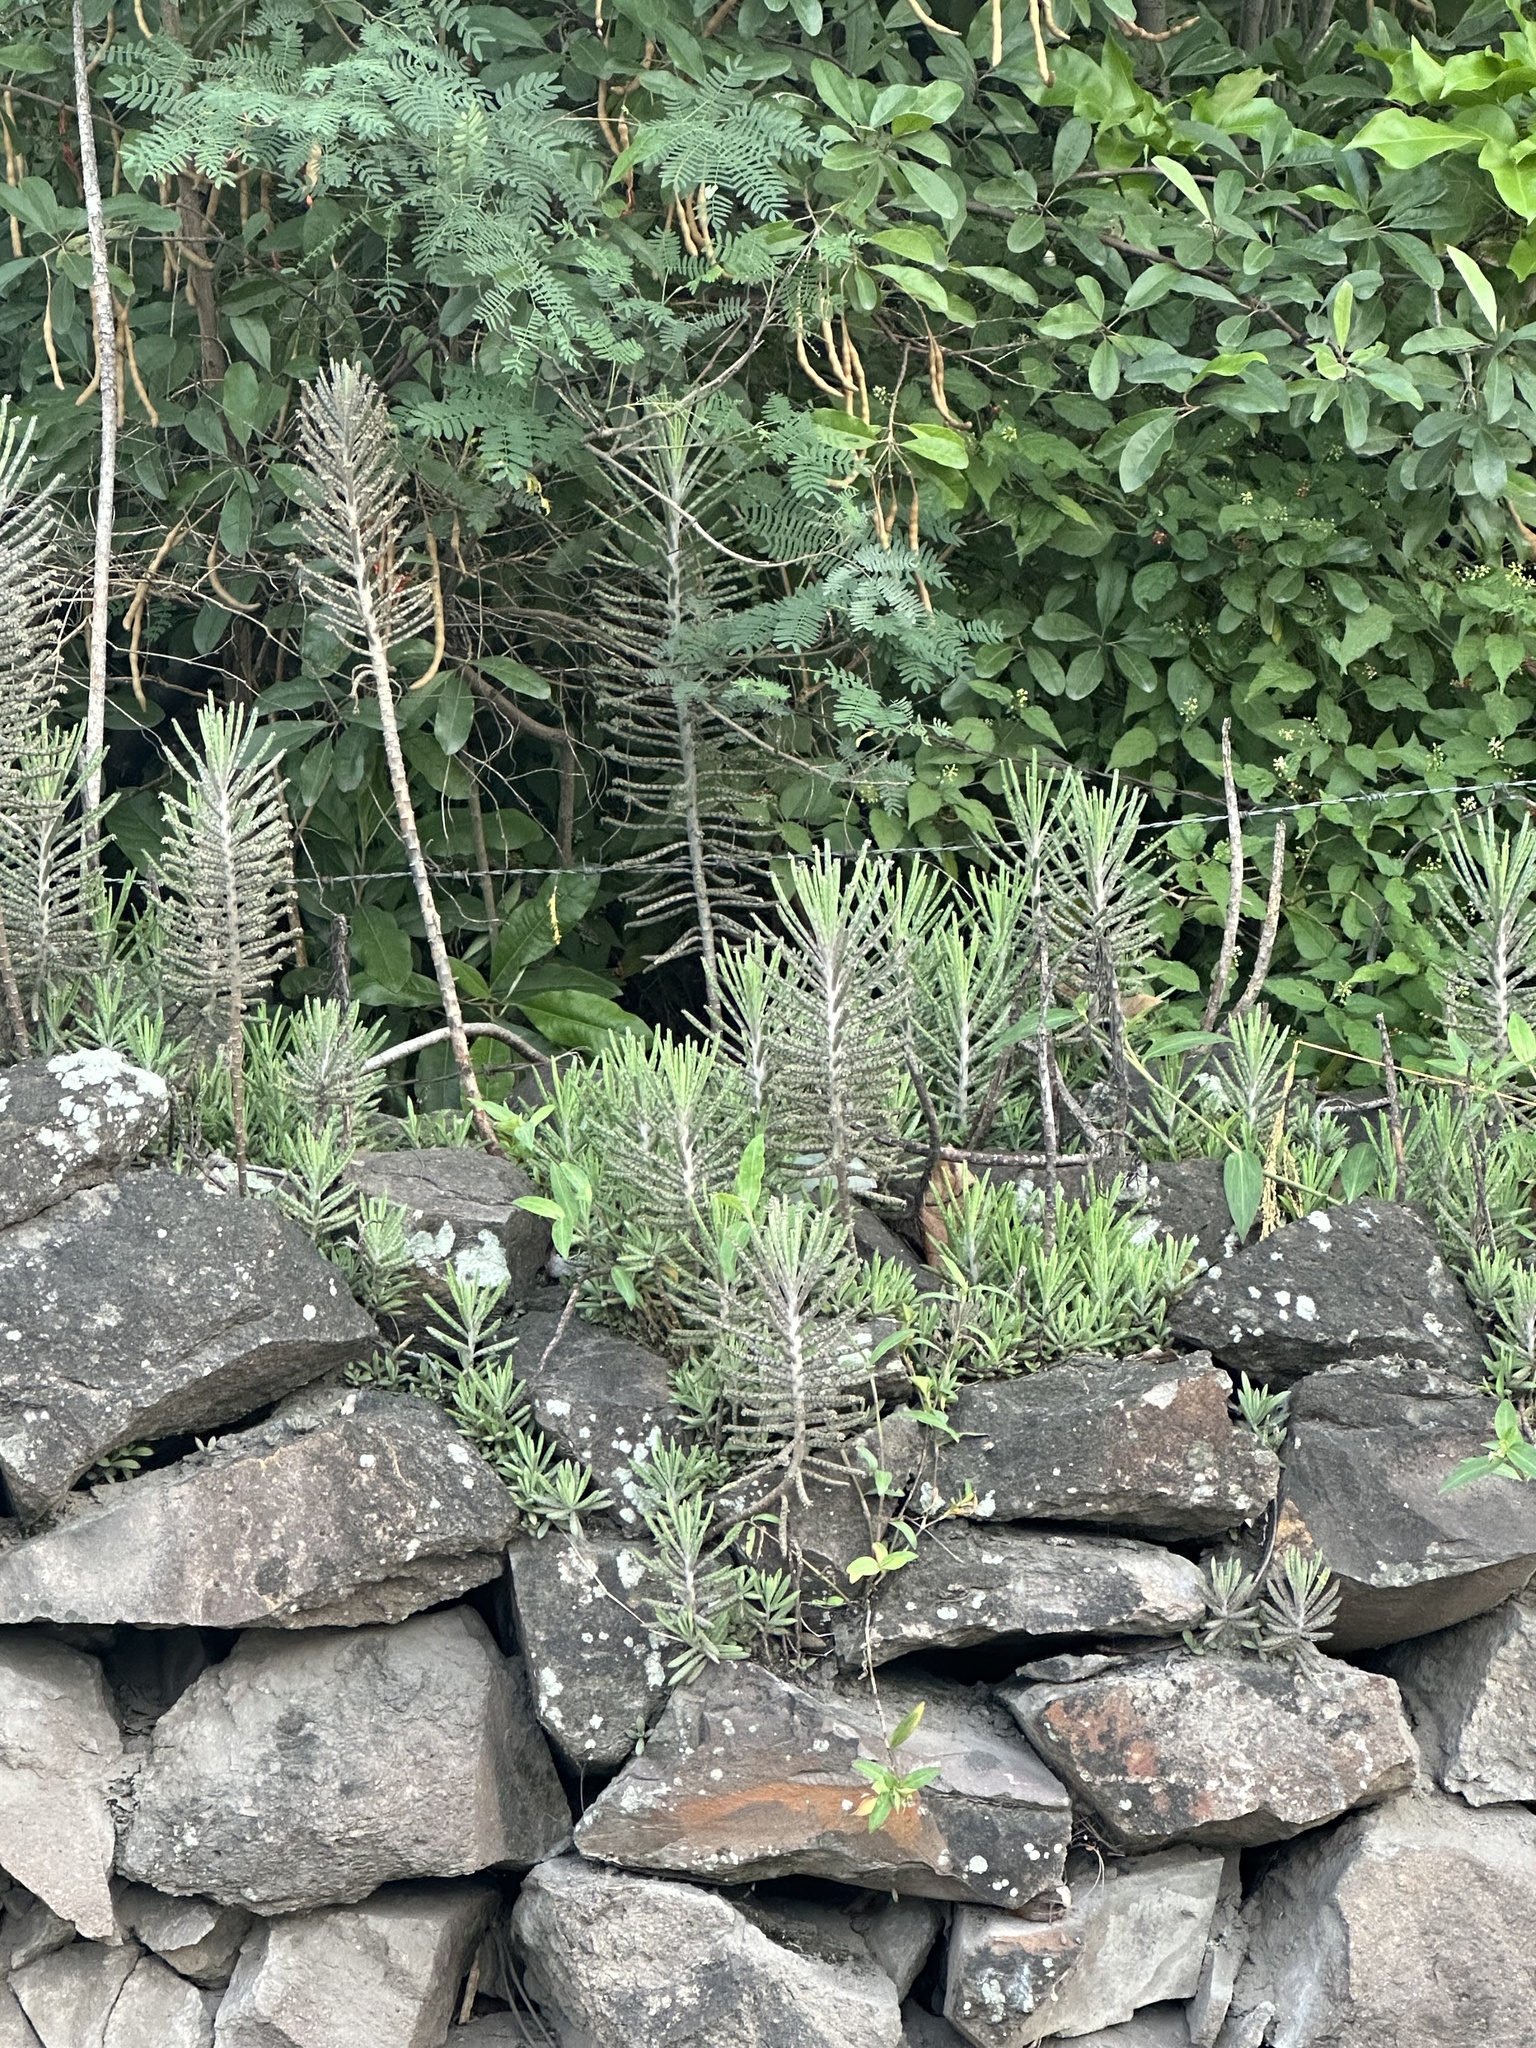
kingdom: Plantae
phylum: Tracheophyta
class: Magnoliopsida
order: Saxifragales
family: Crassulaceae
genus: Kalanchoe
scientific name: Kalanchoe delagoensis
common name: Chandelier plant
